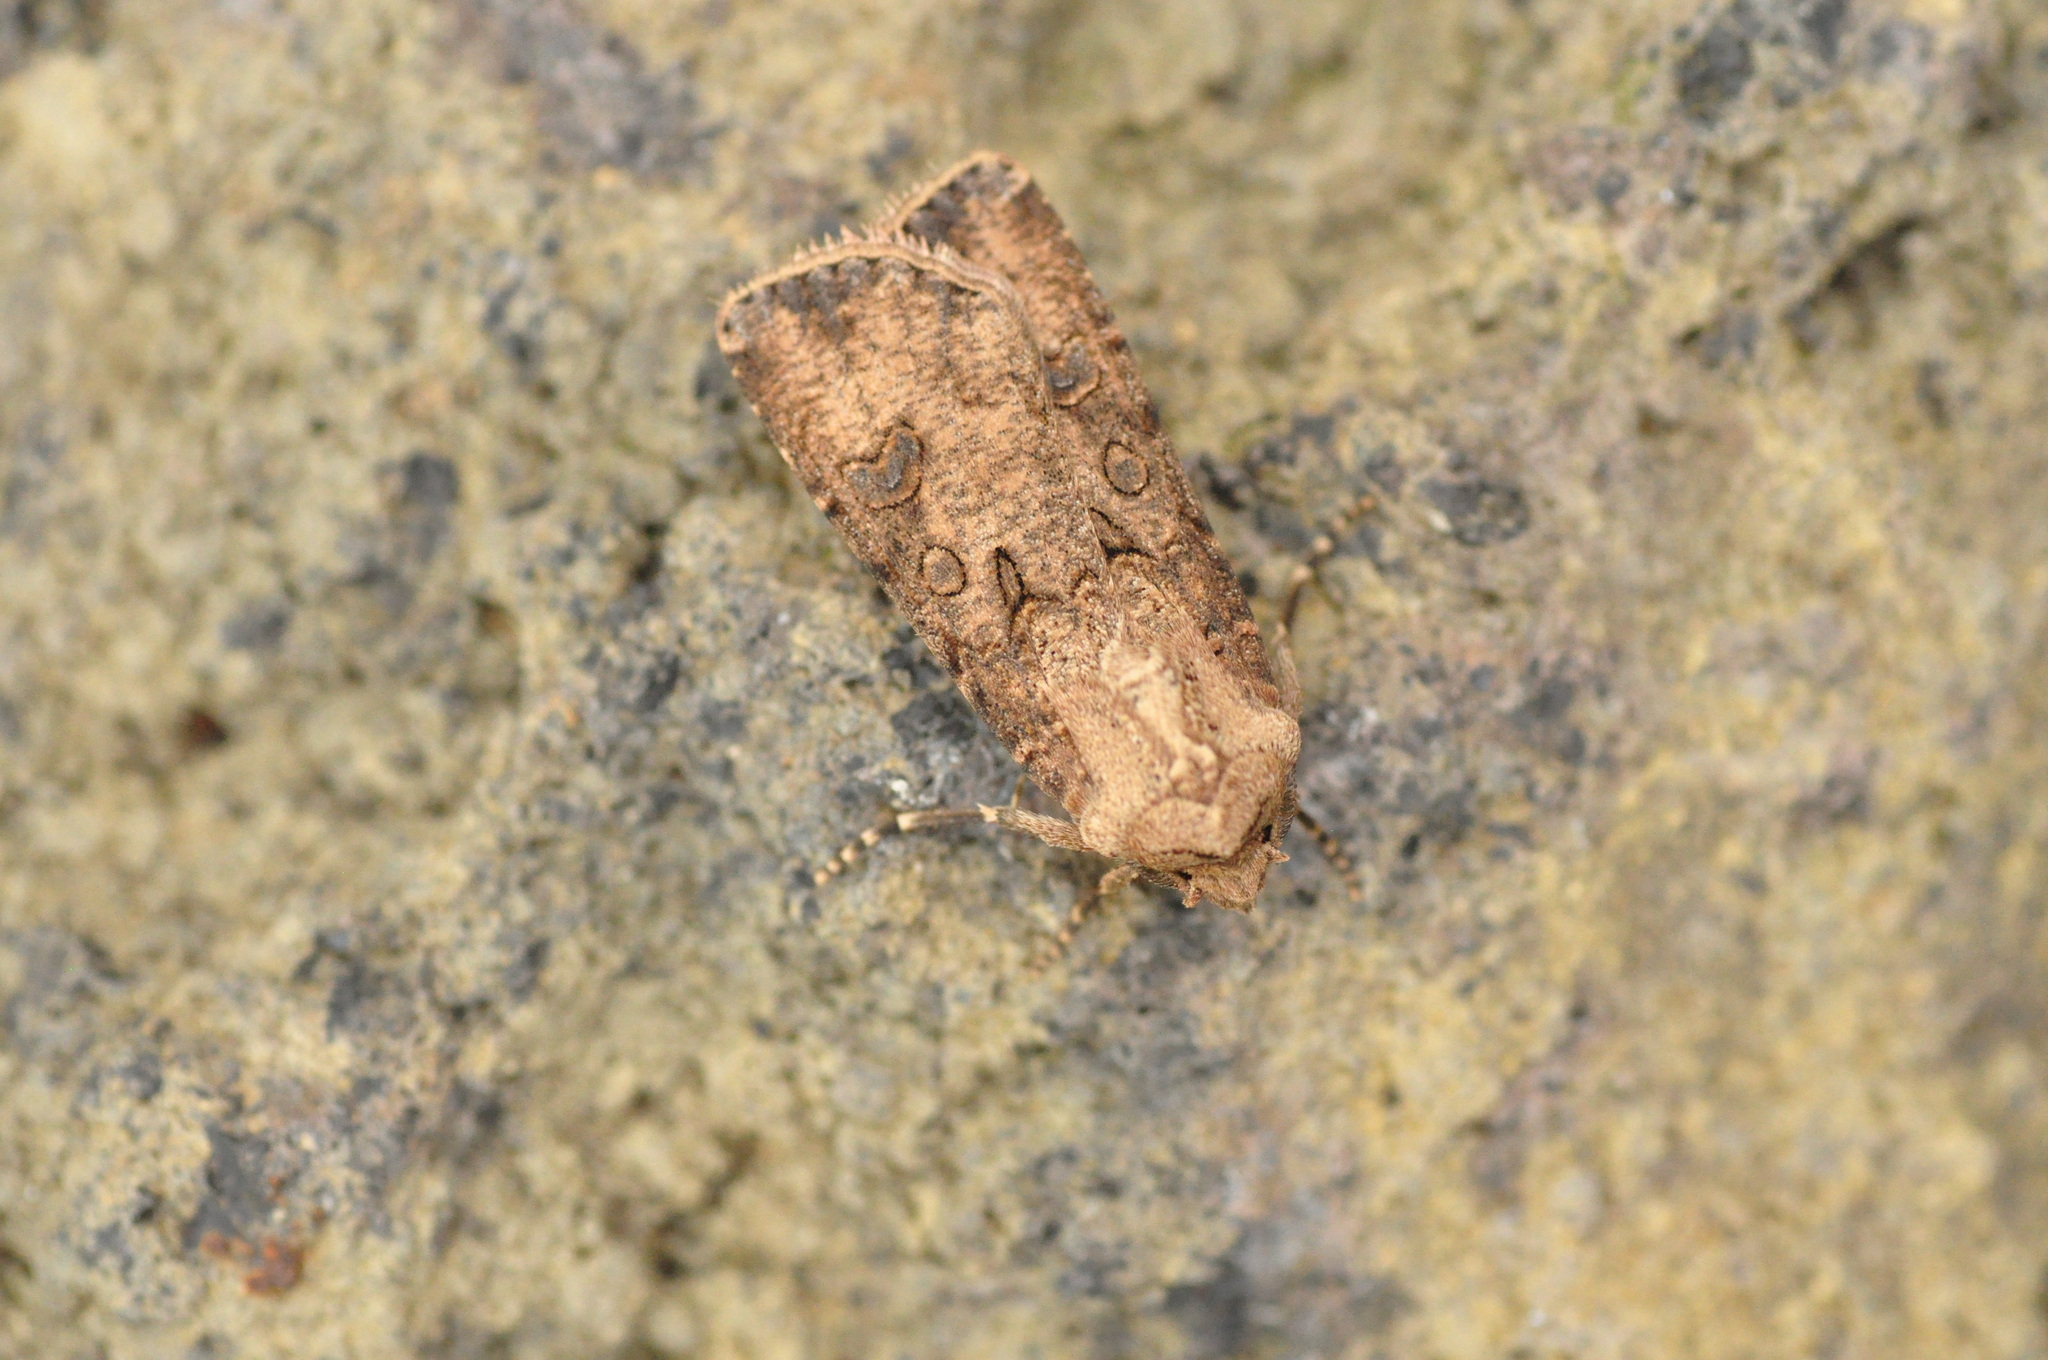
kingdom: Animalia
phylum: Arthropoda
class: Insecta
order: Lepidoptera
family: Noctuidae
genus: Agrotis
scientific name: Agrotis segetum
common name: Turnip moth
